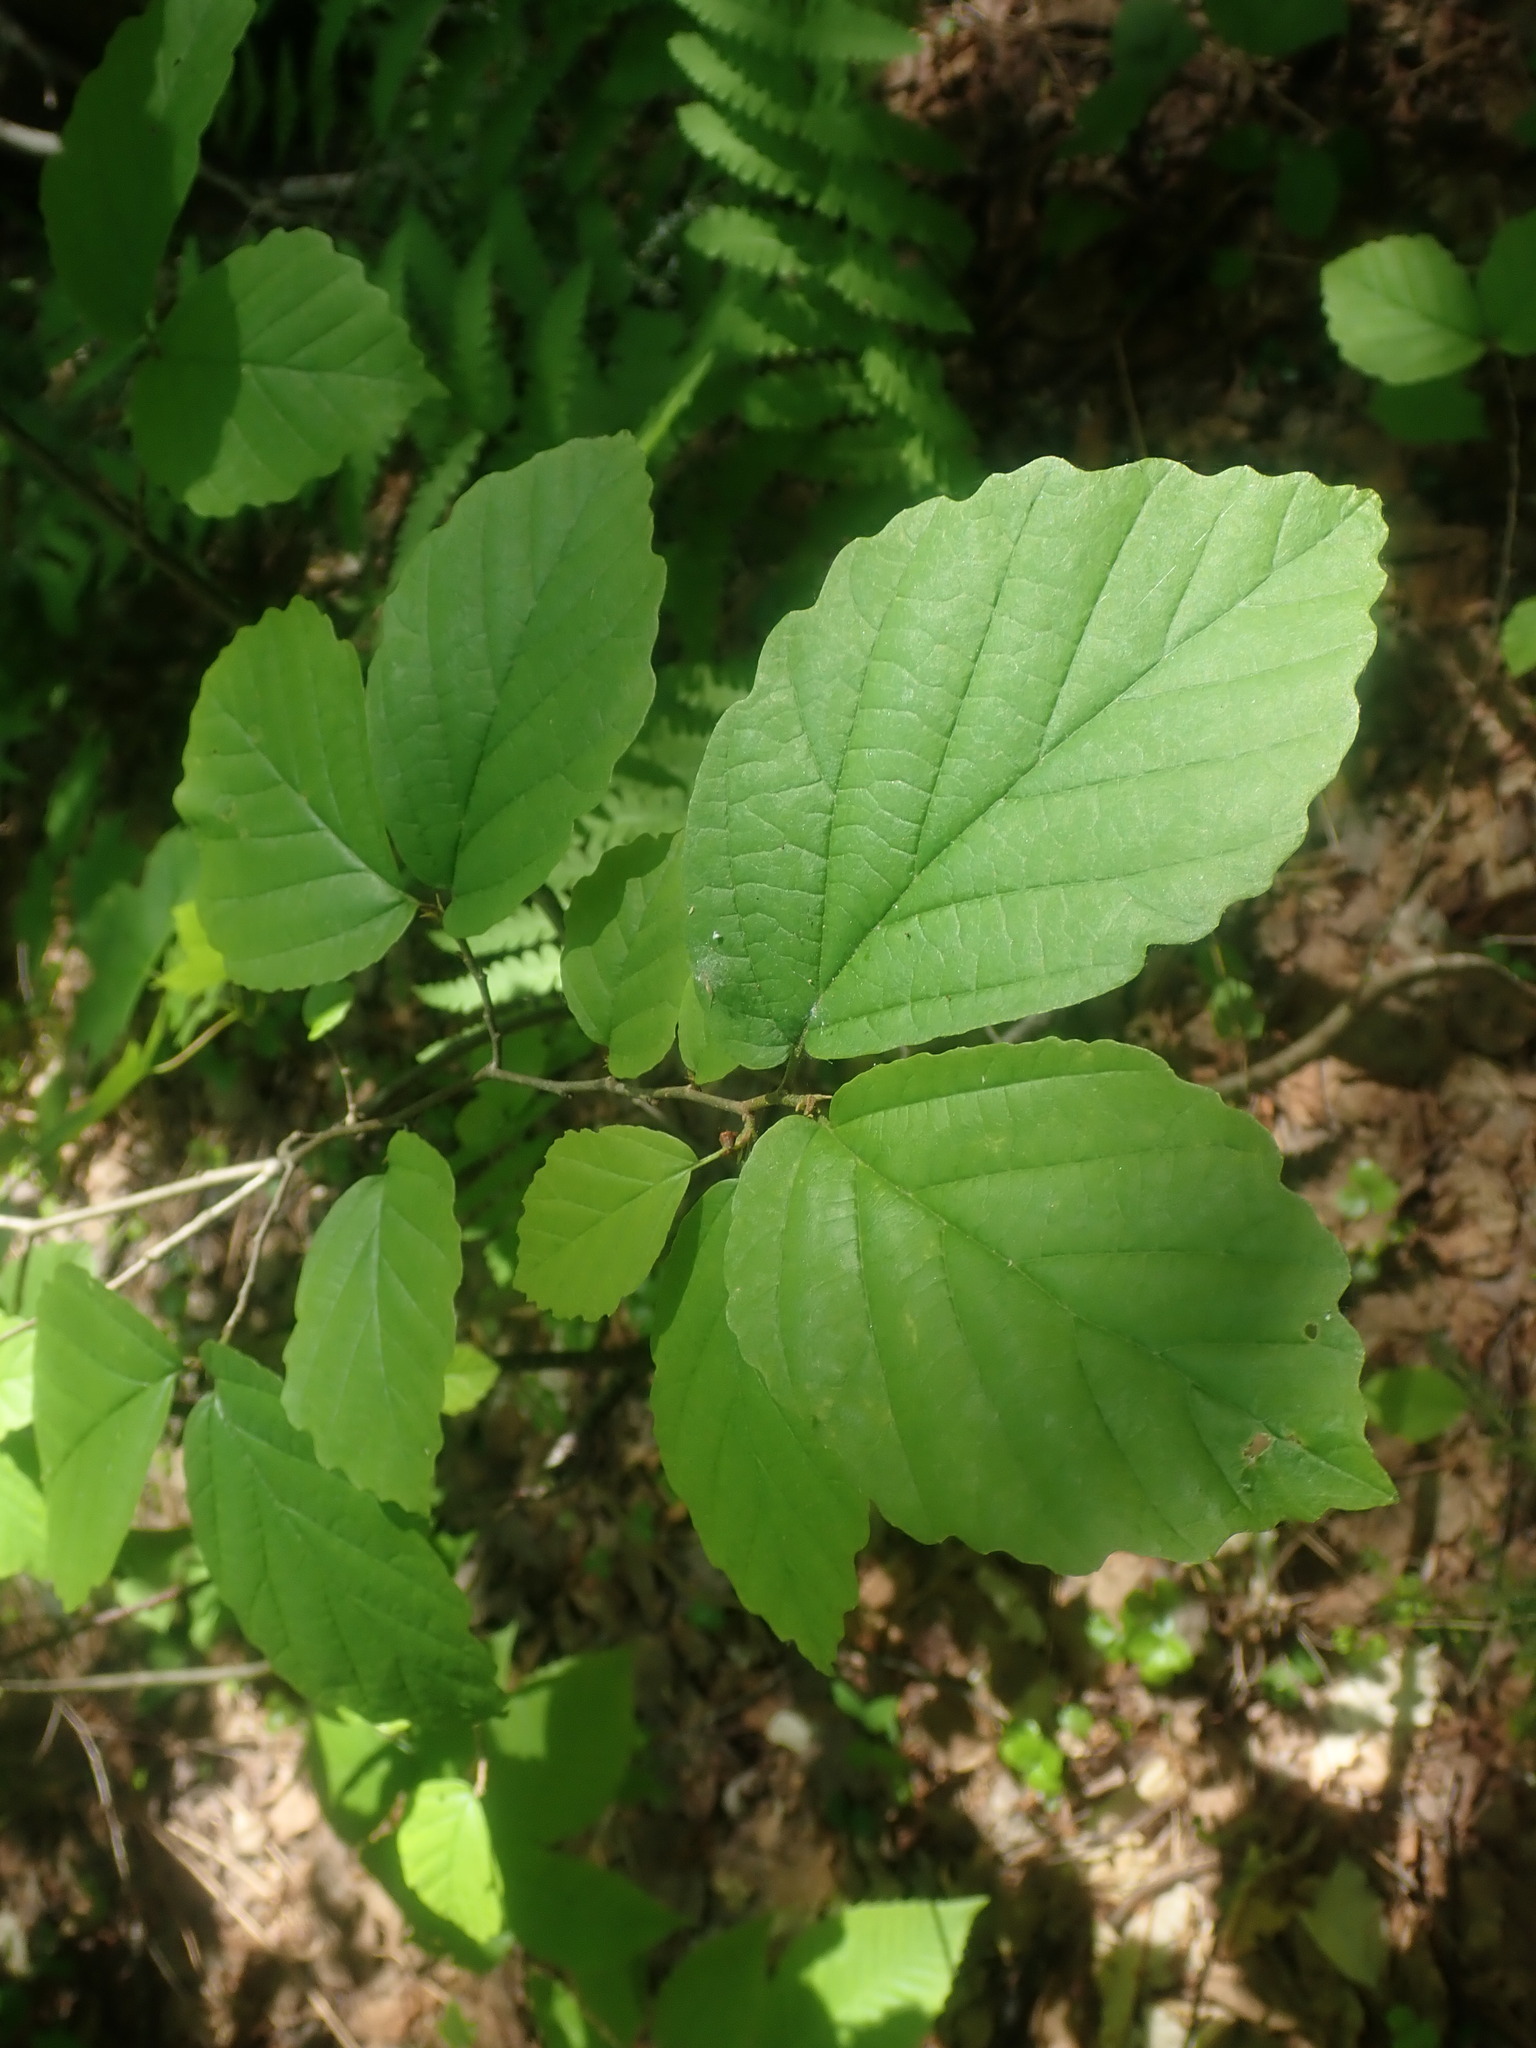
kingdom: Plantae
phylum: Tracheophyta
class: Magnoliopsida
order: Saxifragales
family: Hamamelidaceae
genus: Hamamelis
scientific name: Hamamelis virginiana
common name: Witch-hazel
